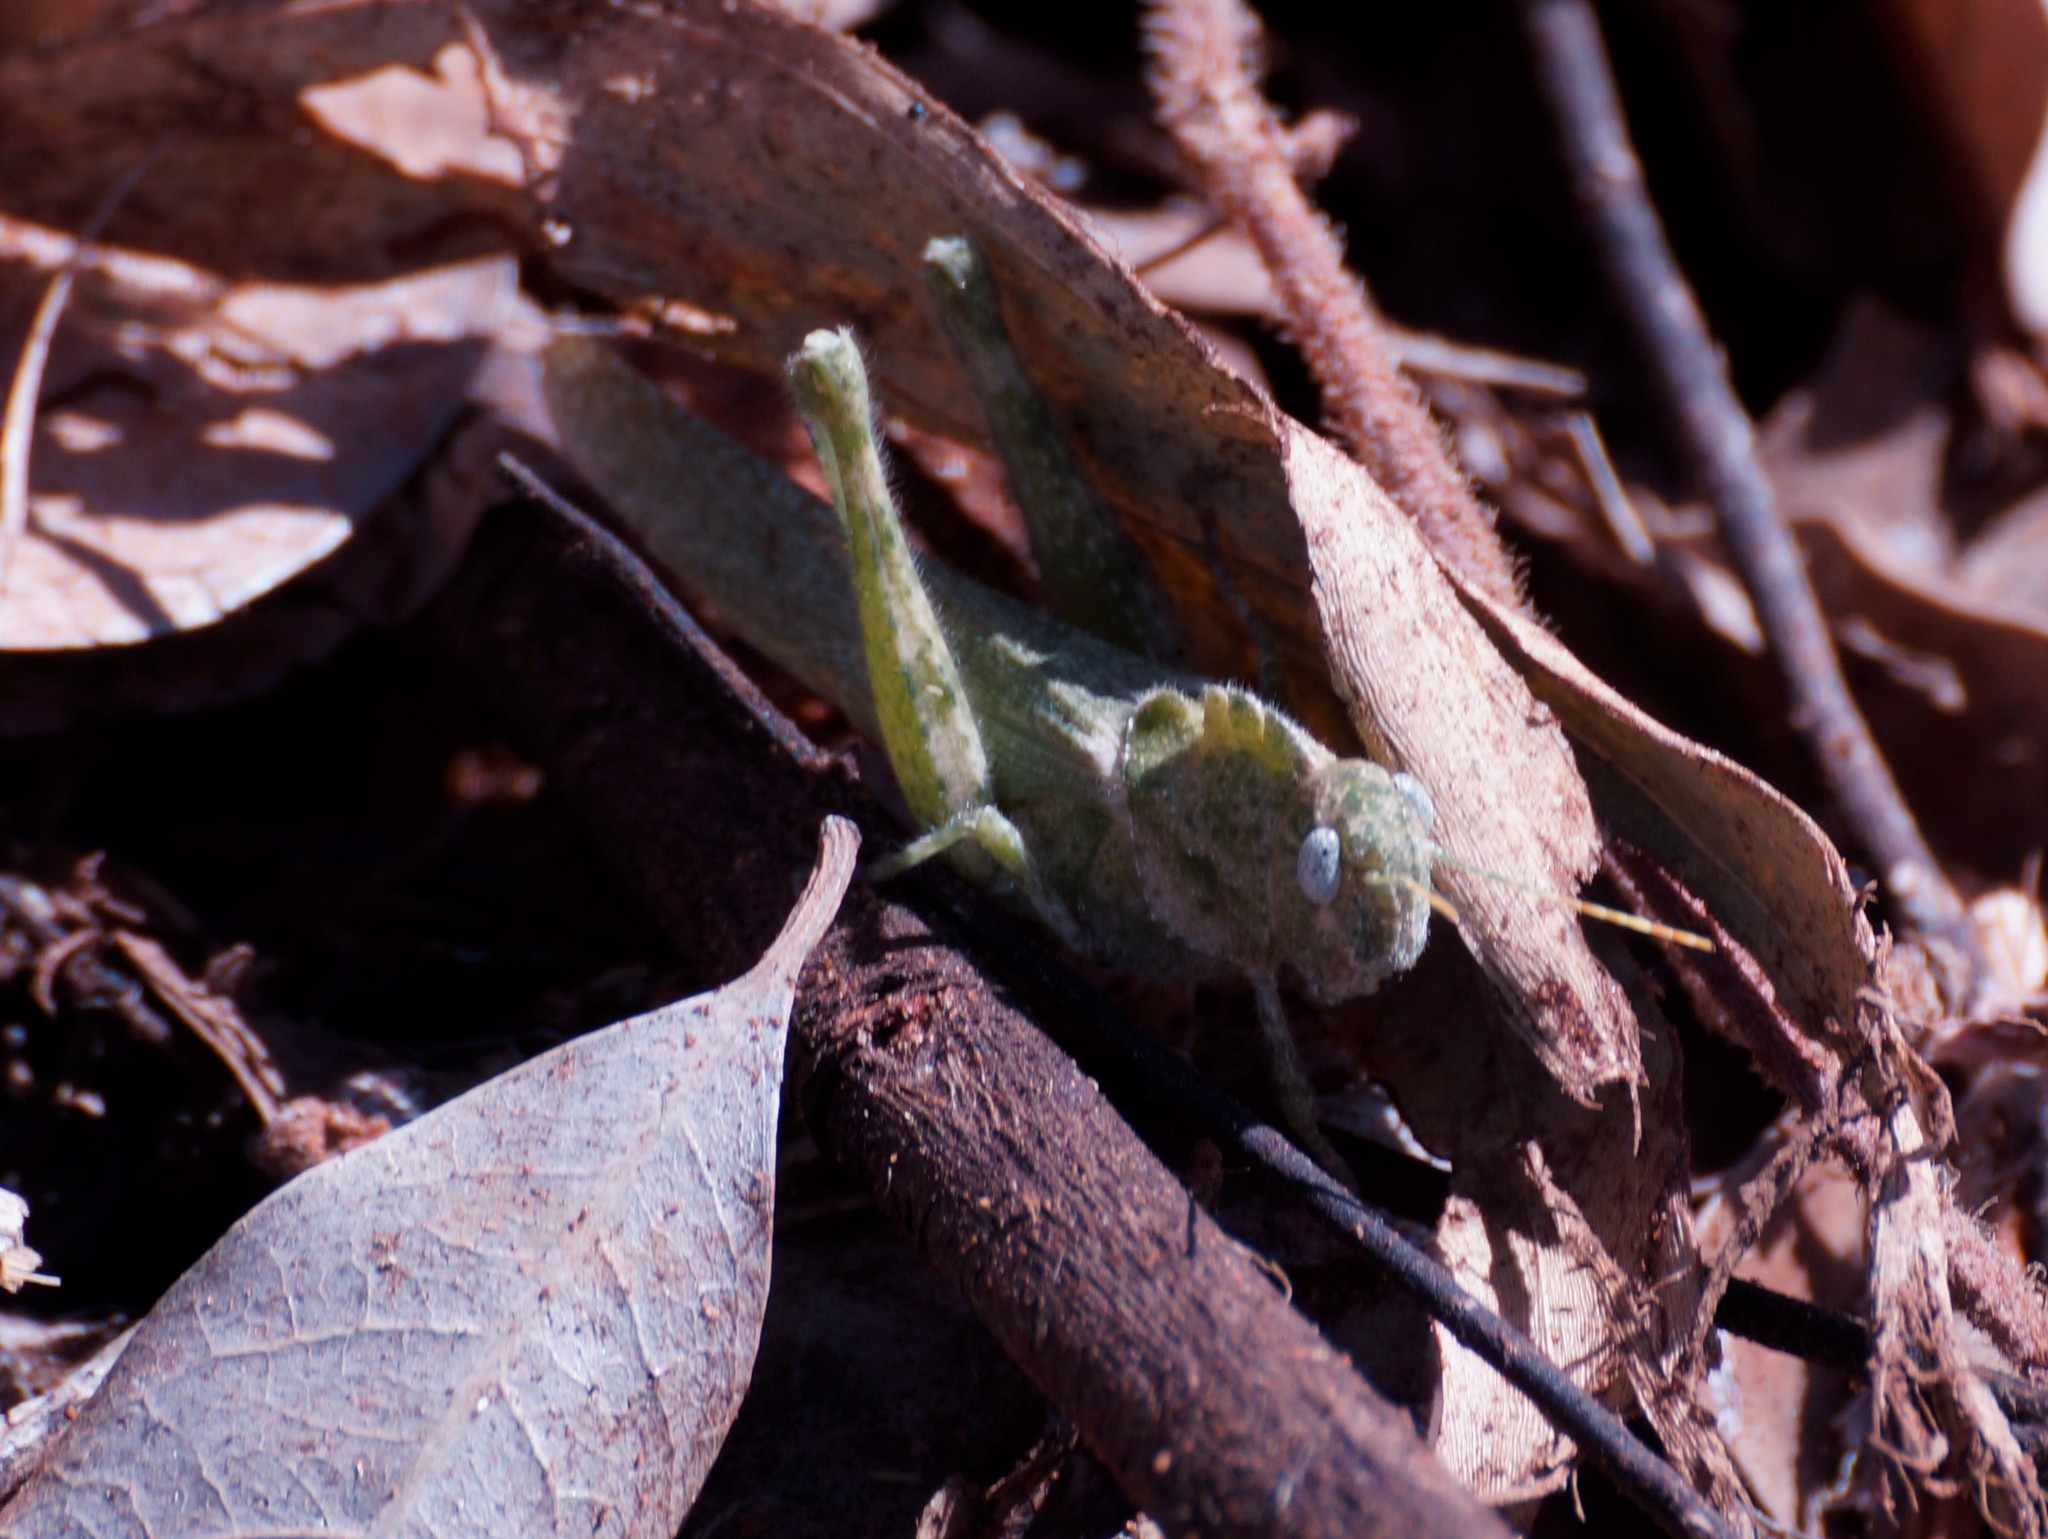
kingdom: Animalia
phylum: Arthropoda
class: Insecta
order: Orthoptera
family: Acrididae
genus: Ecphantus
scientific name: Ecphantus quadrilobus
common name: Crested tooth grinder
